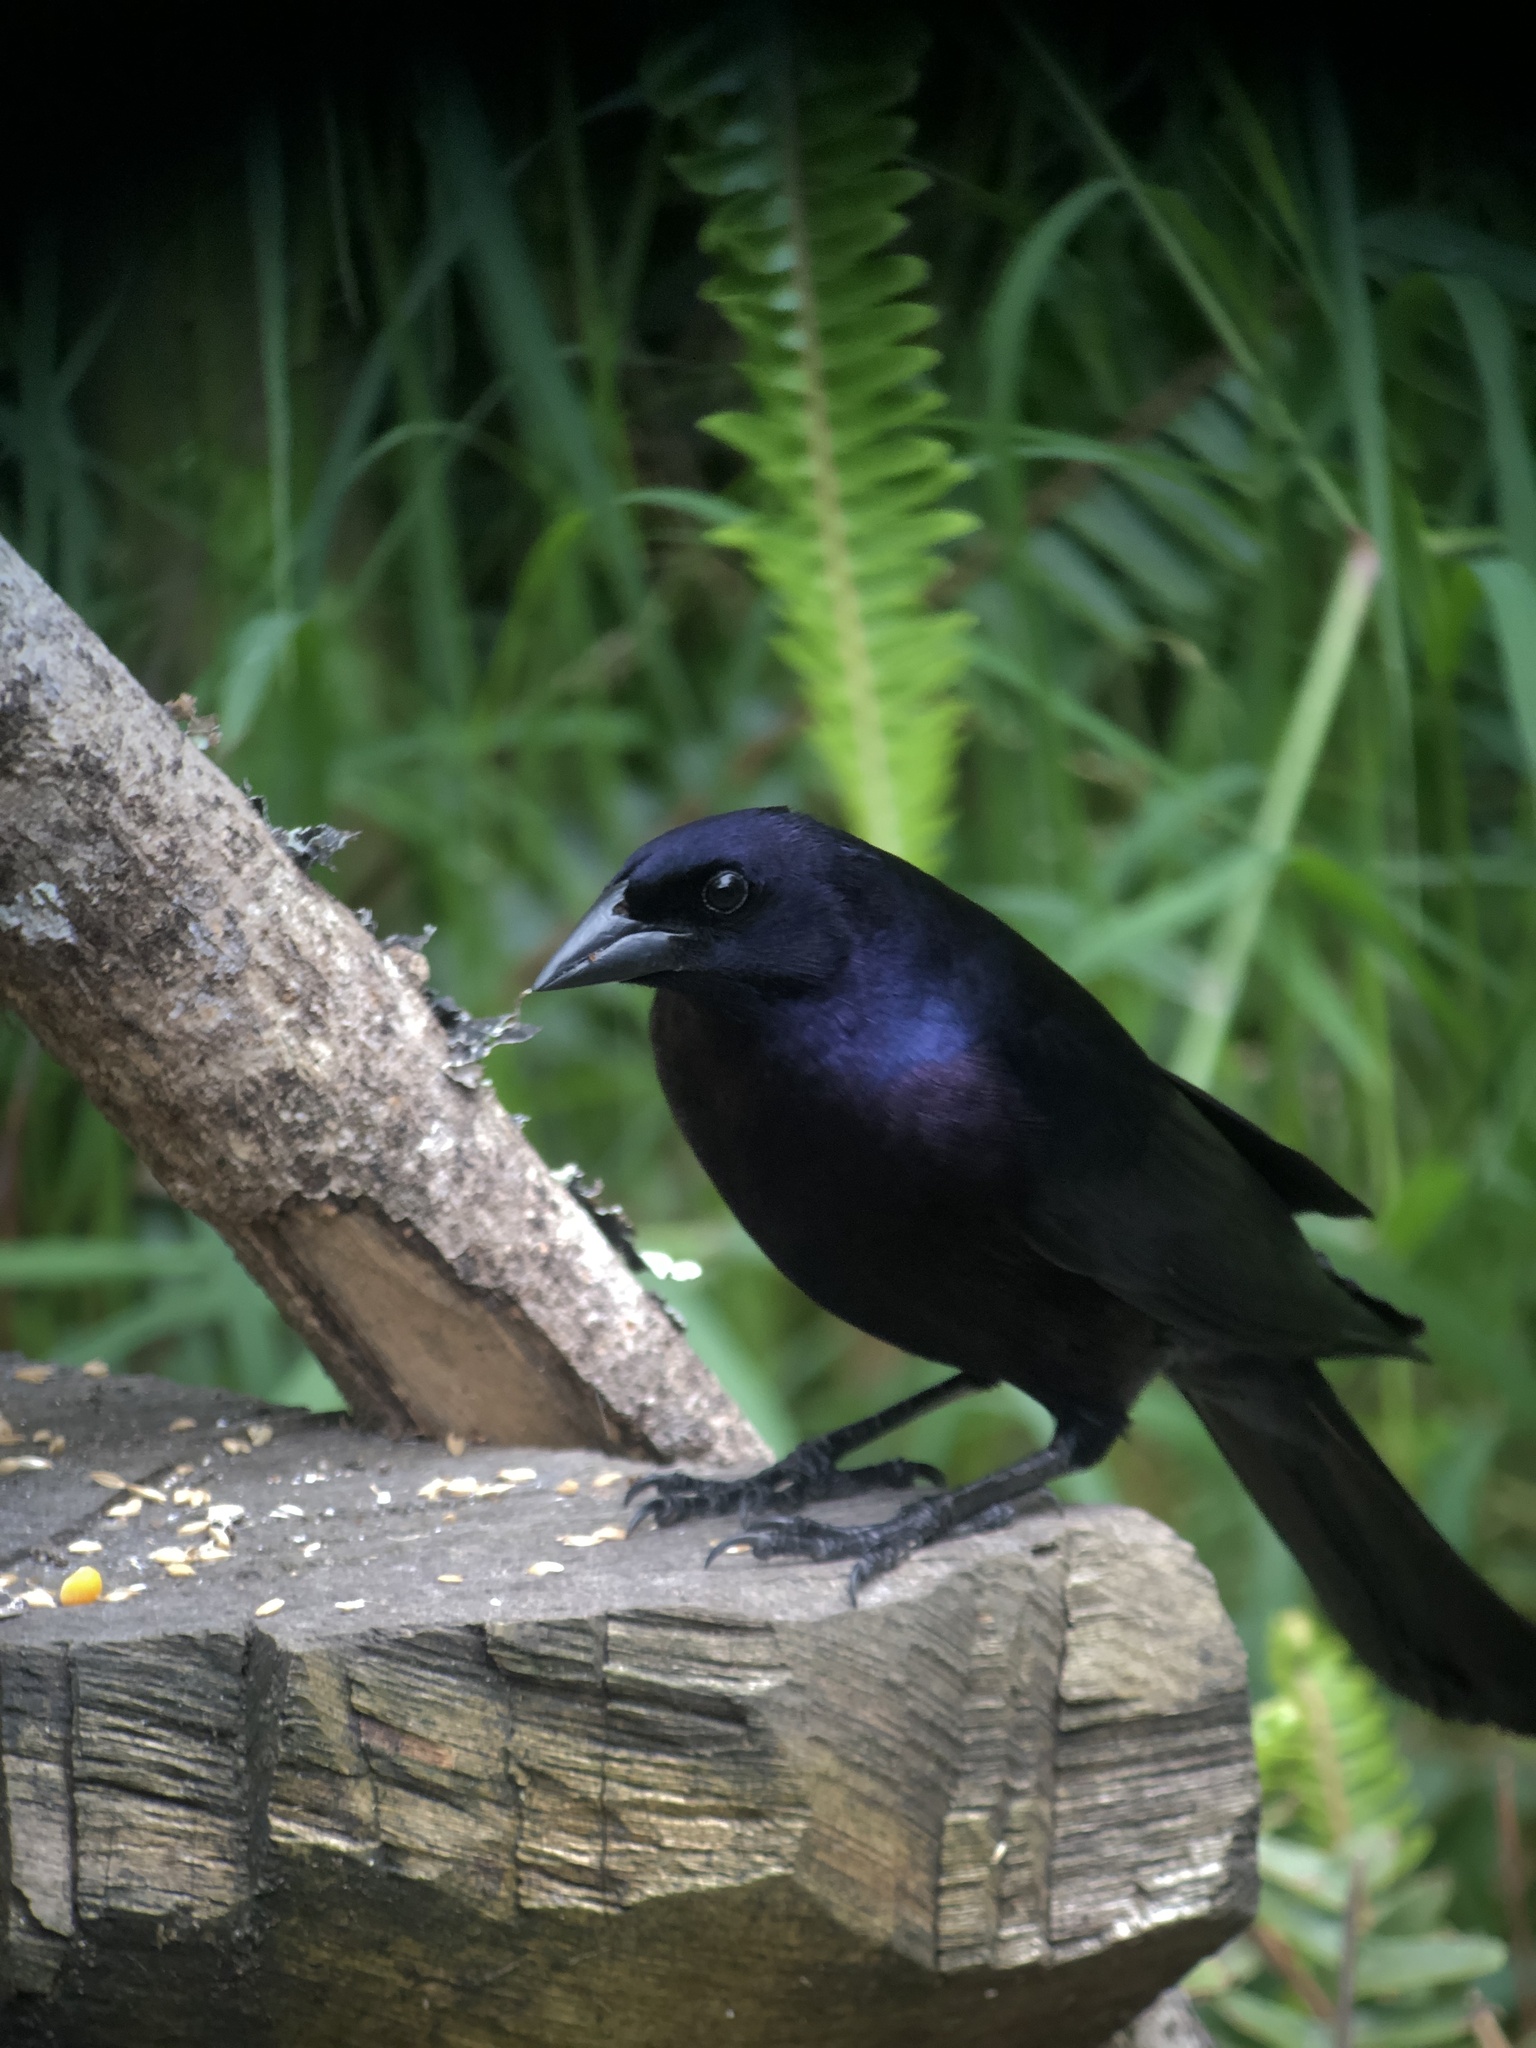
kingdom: Animalia
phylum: Chordata
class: Aves
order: Passeriformes
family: Icteridae
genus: Molothrus
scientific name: Molothrus bonariensis
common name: Shiny cowbird
